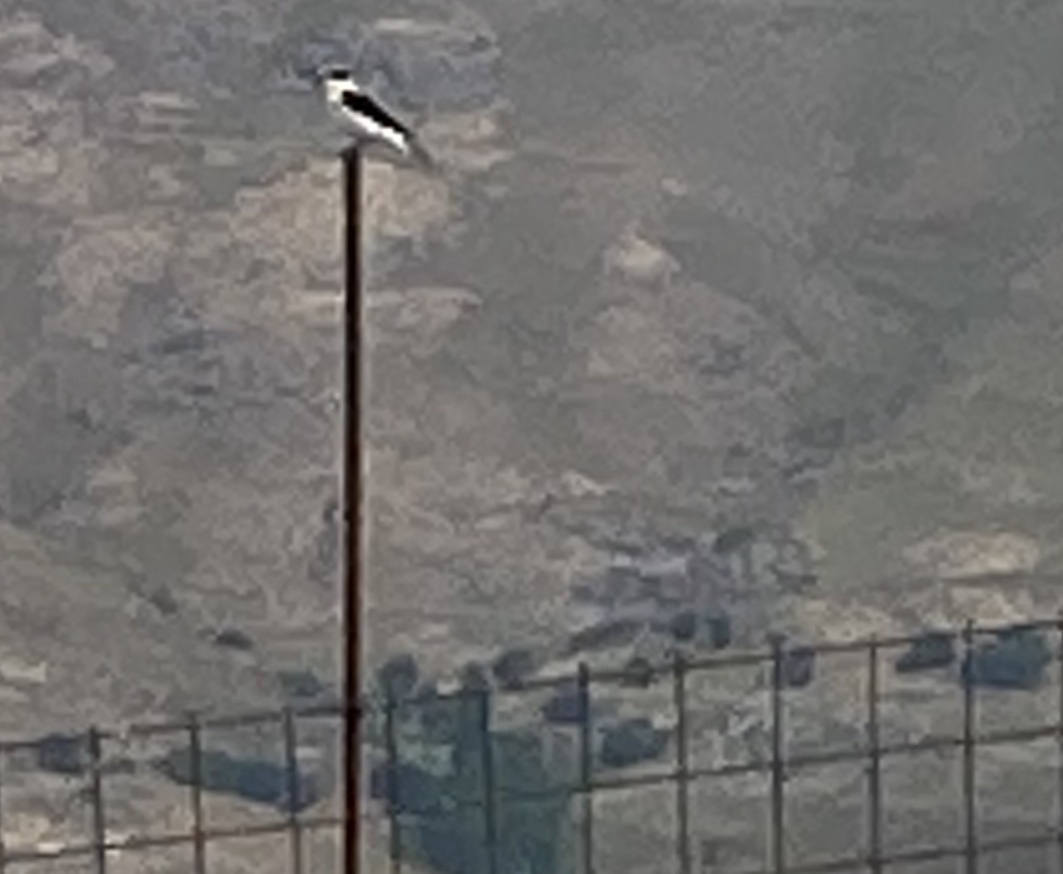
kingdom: Animalia
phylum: Chordata
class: Aves
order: Passeriformes
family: Muscicapidae
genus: Oenanthe
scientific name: Oenanthe hispanica
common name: Black-eared wheatear
